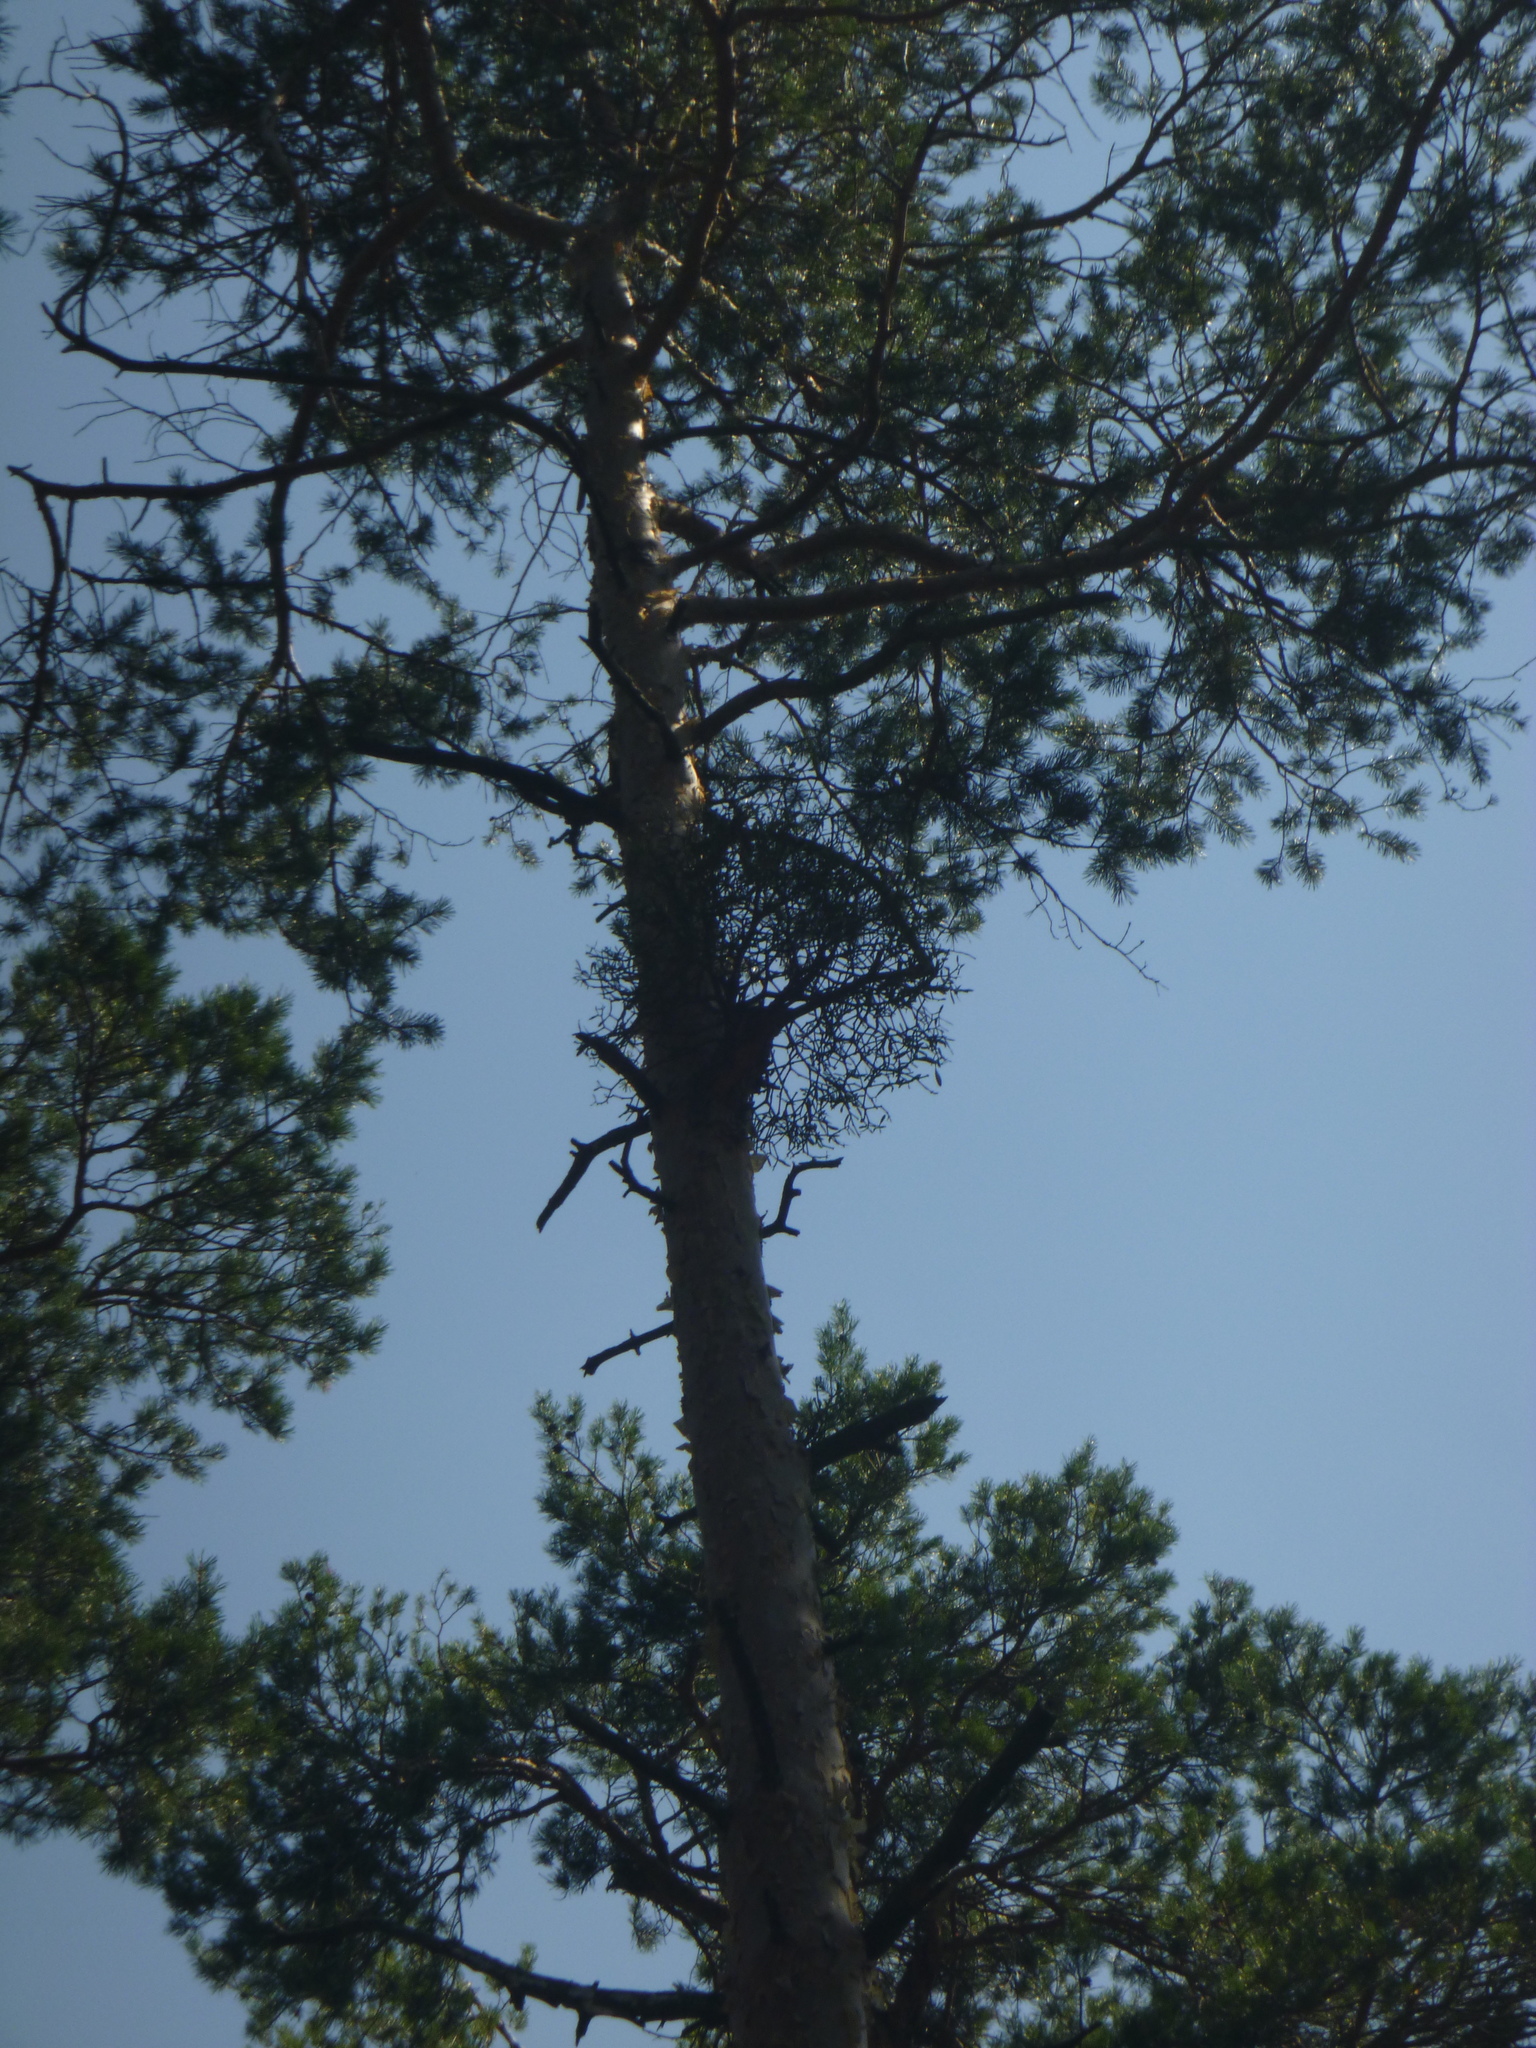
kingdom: Plantae
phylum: Tracheophyta
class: Magnoliopsida
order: Santalales
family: Viscaceae
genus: Viscum
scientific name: Viscum laxum
